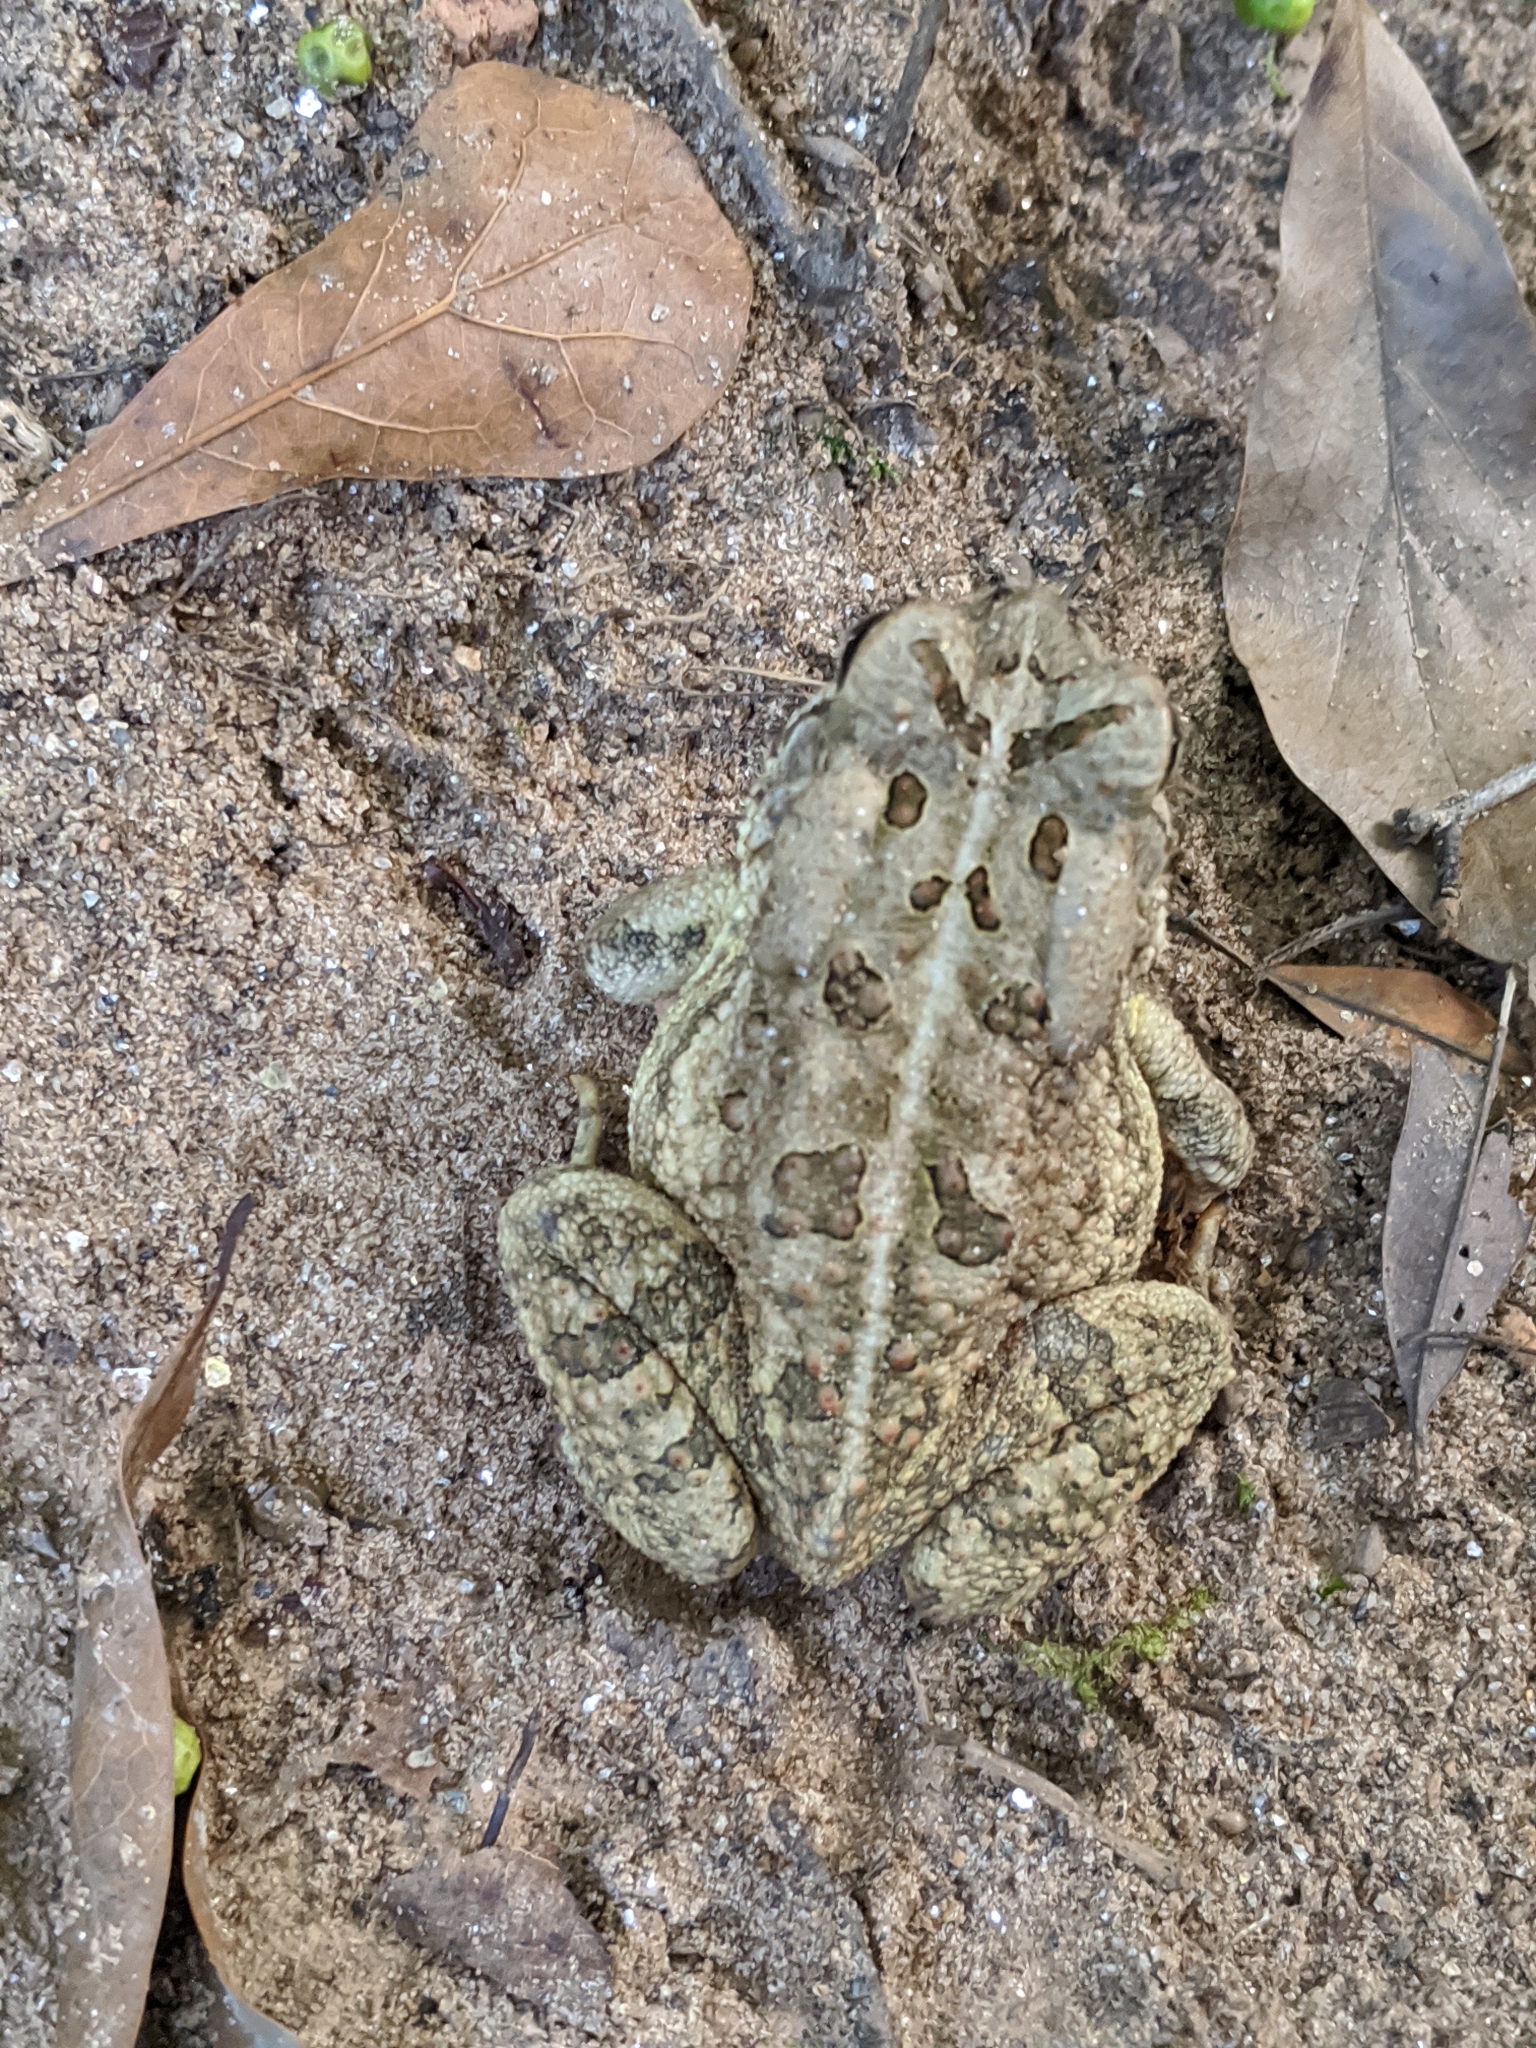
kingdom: Animalia
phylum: Chordata
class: Amphibia
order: Anura
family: Bufonidae
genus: Anaxyrus
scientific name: Anaxyrus fowleri
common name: Fowler's toad
